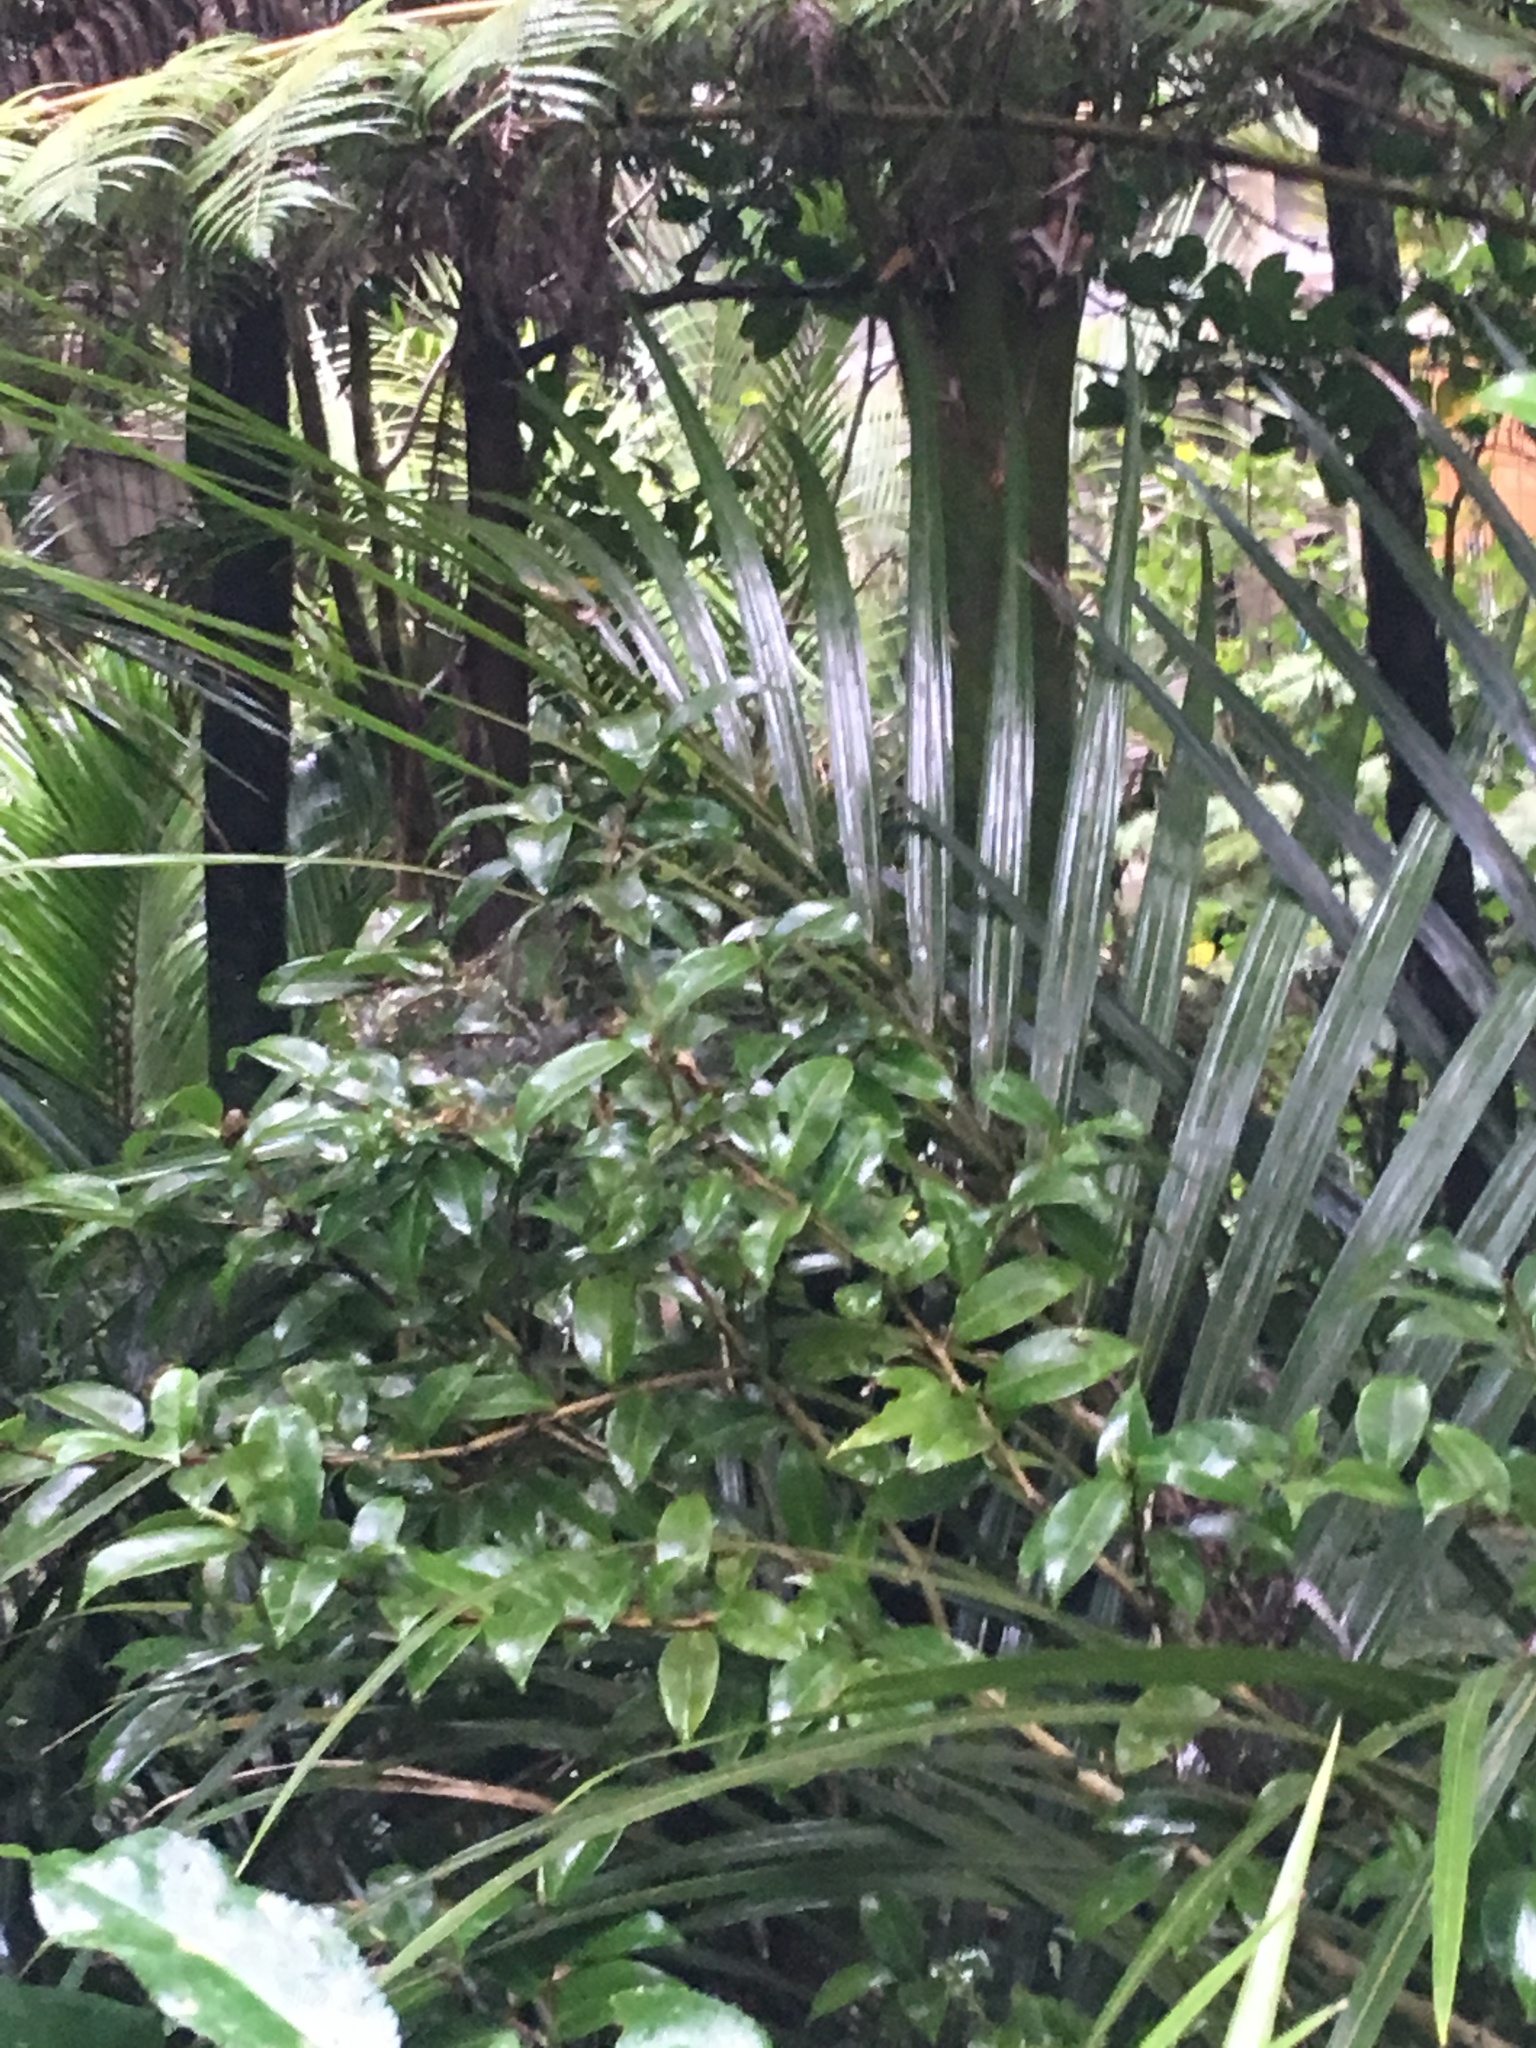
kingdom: Plantae
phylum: Tracheophyta
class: Liliopsida
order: Arecales
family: Arecaceae
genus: Rhopalostylis
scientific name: Rhopalostylis sapida
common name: Feather-duster palm
